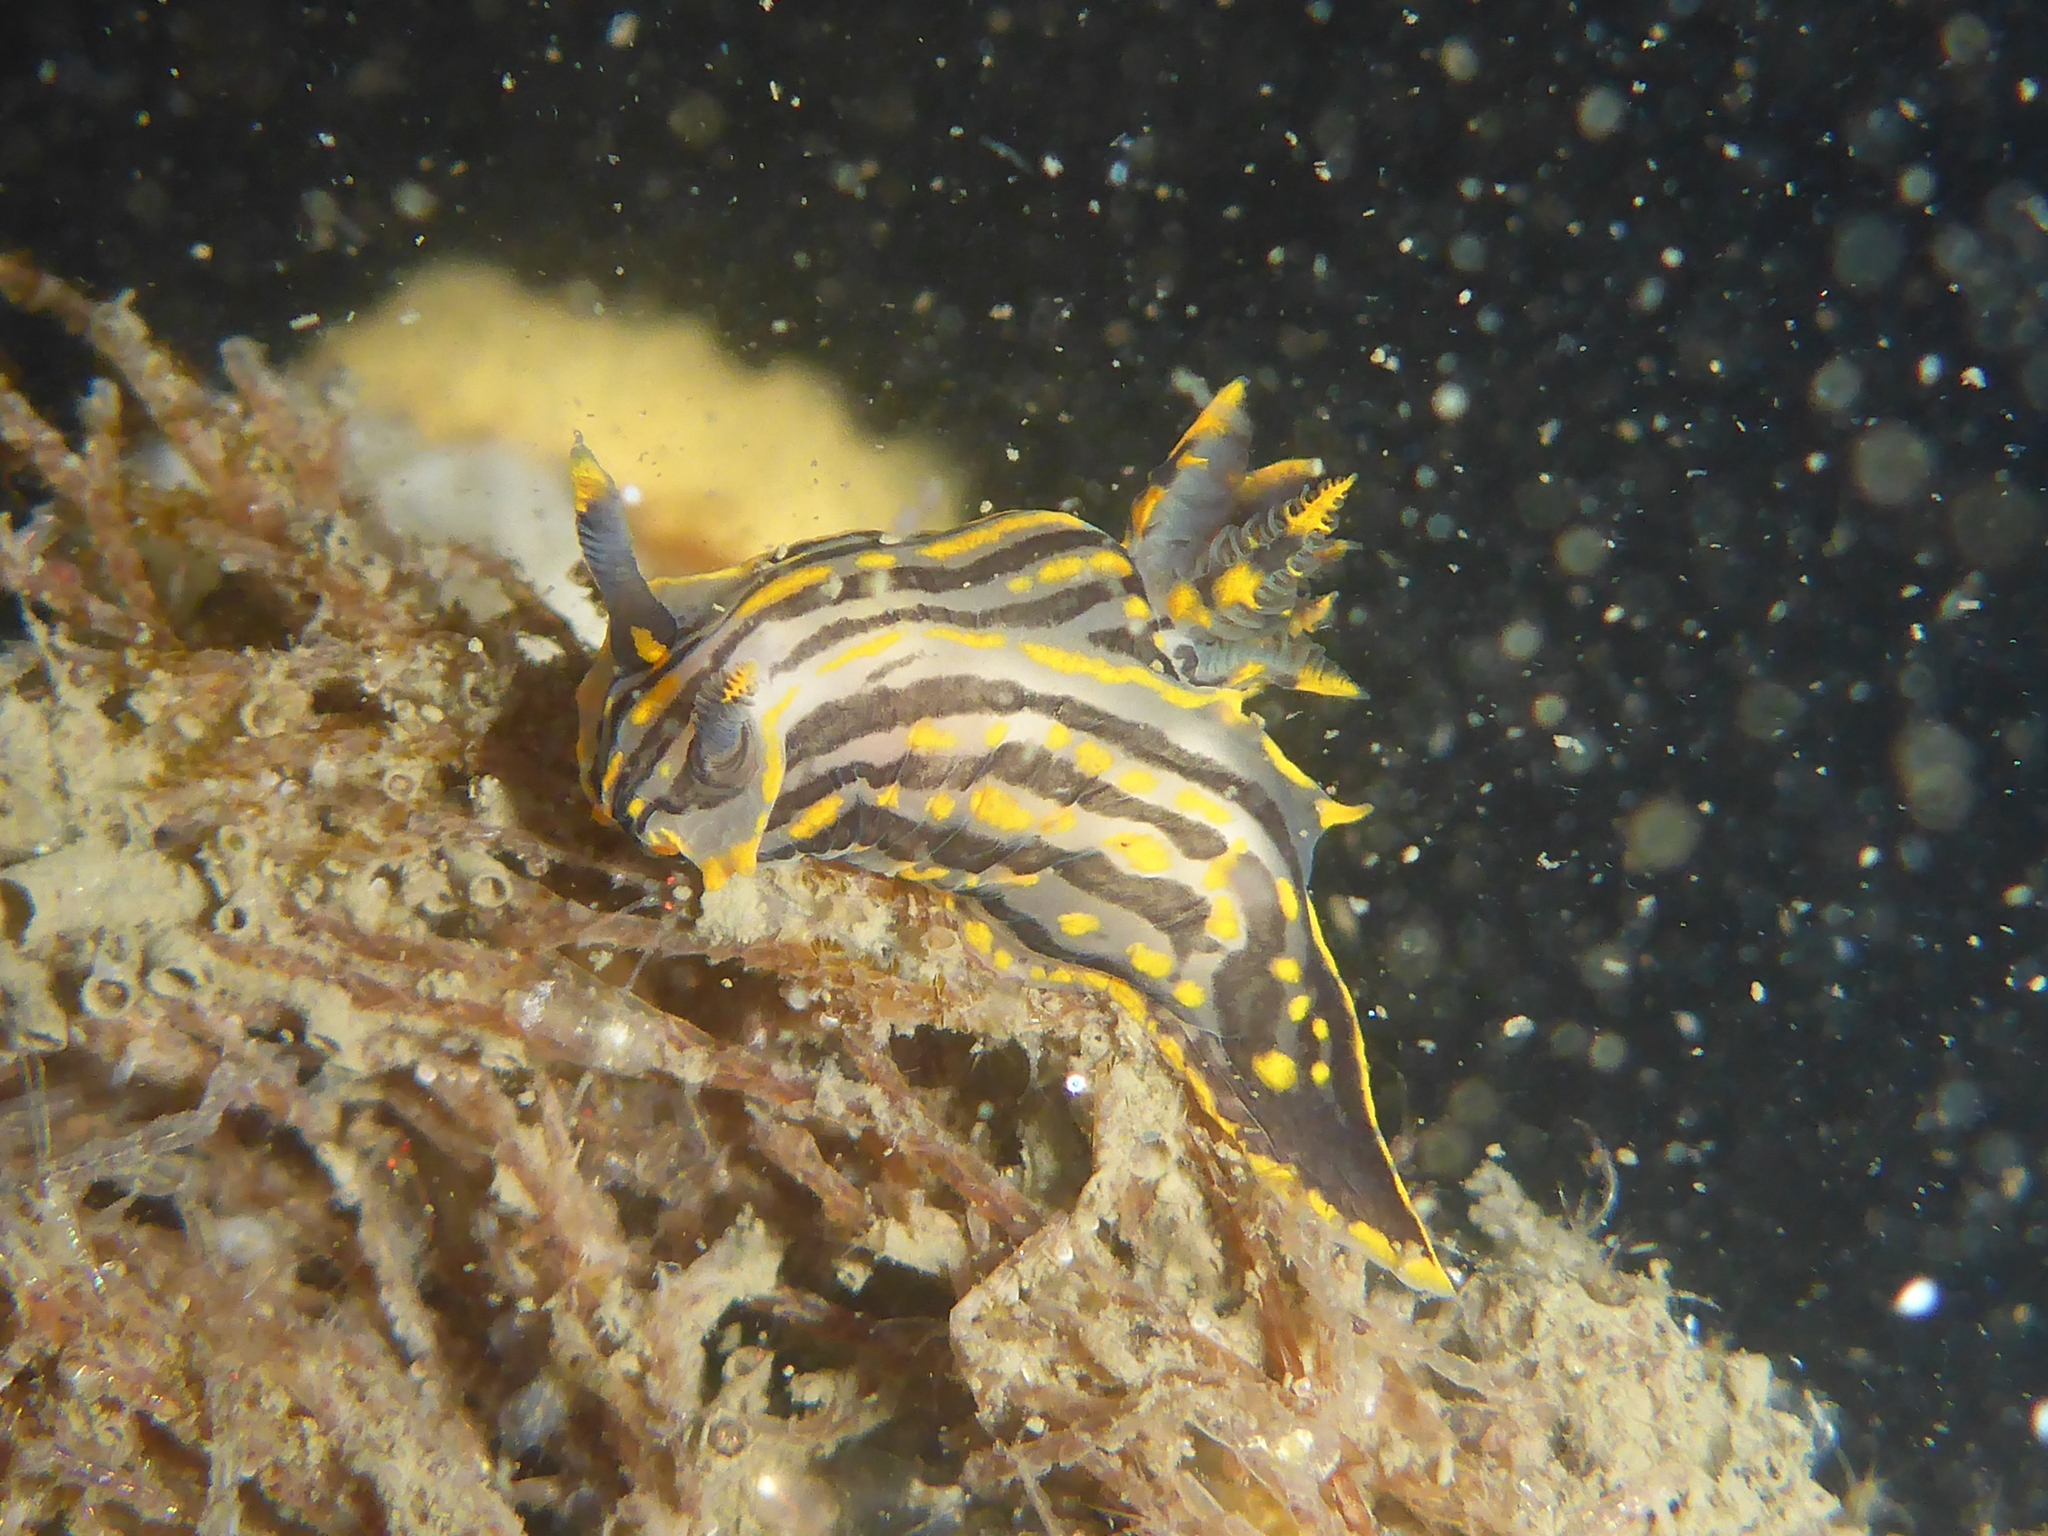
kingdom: Animalia
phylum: Mollusca
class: Gastropoda
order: Nudibranchia
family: Polyceridae
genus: Polycera
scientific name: Polycera atra
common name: Orange-spike polycera
